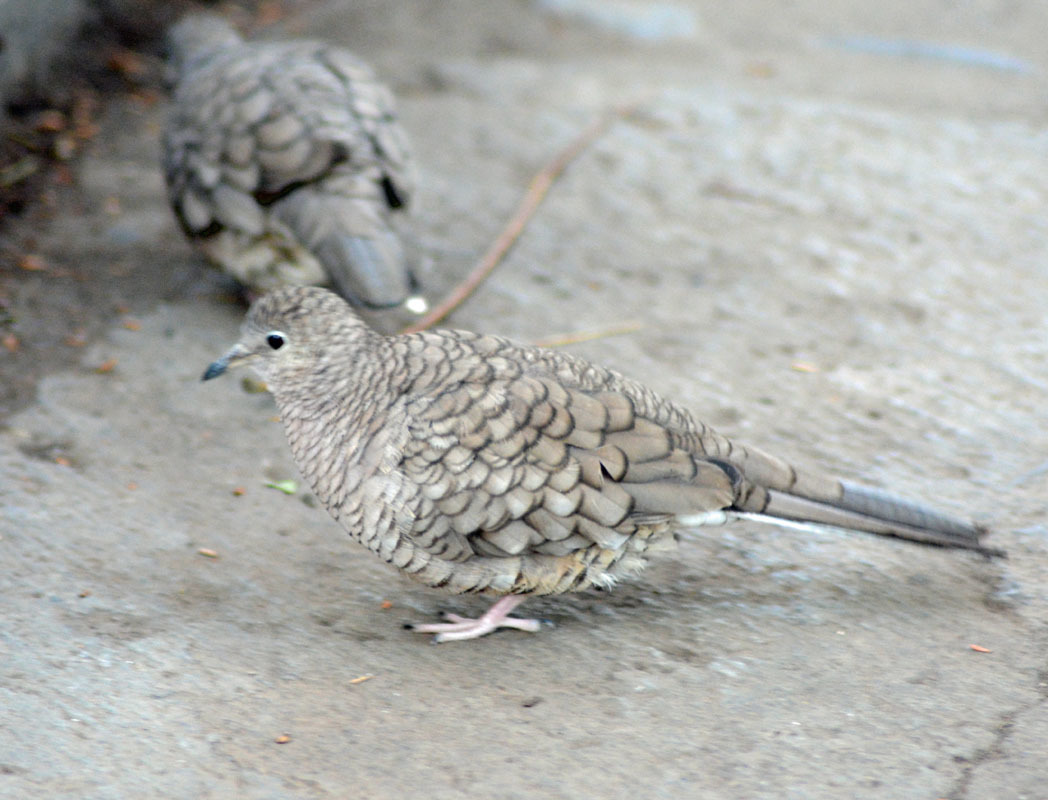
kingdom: Animalia
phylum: Chordata
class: Aves
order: Columbiformes
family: Columbidae
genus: Columbina
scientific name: Columbina inca
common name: Inca dove
